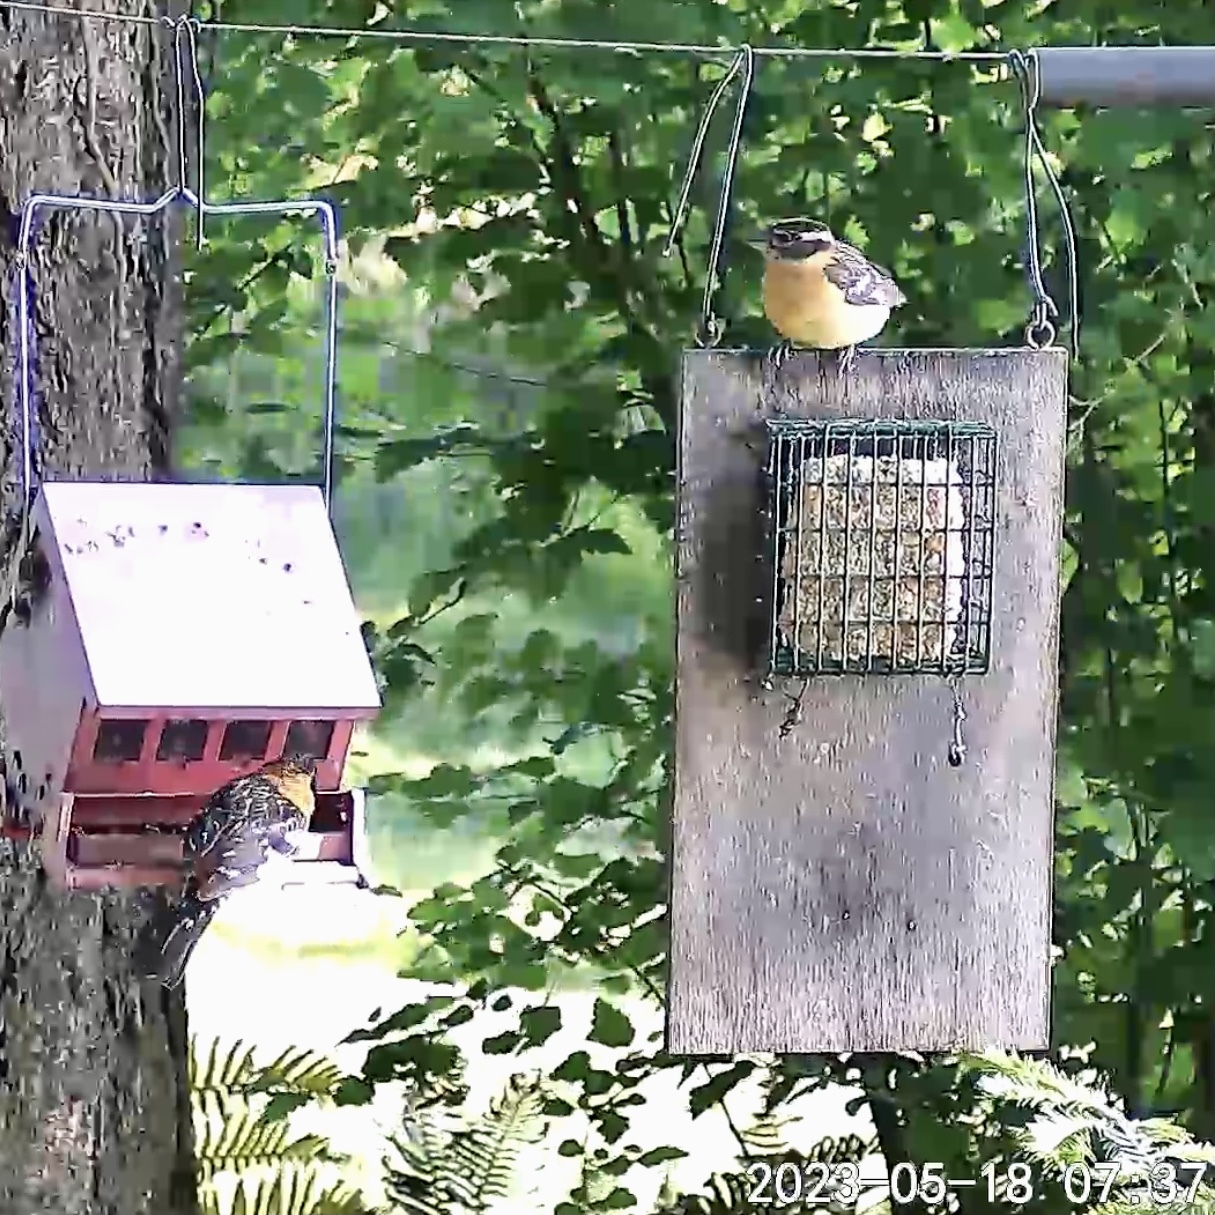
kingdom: Animalia
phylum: Chordata
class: Aves
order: Passeriformes
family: Cardinalidae
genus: Pheucticus
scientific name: Pheucticus melanocephalus
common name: Black-headed grosbeak
